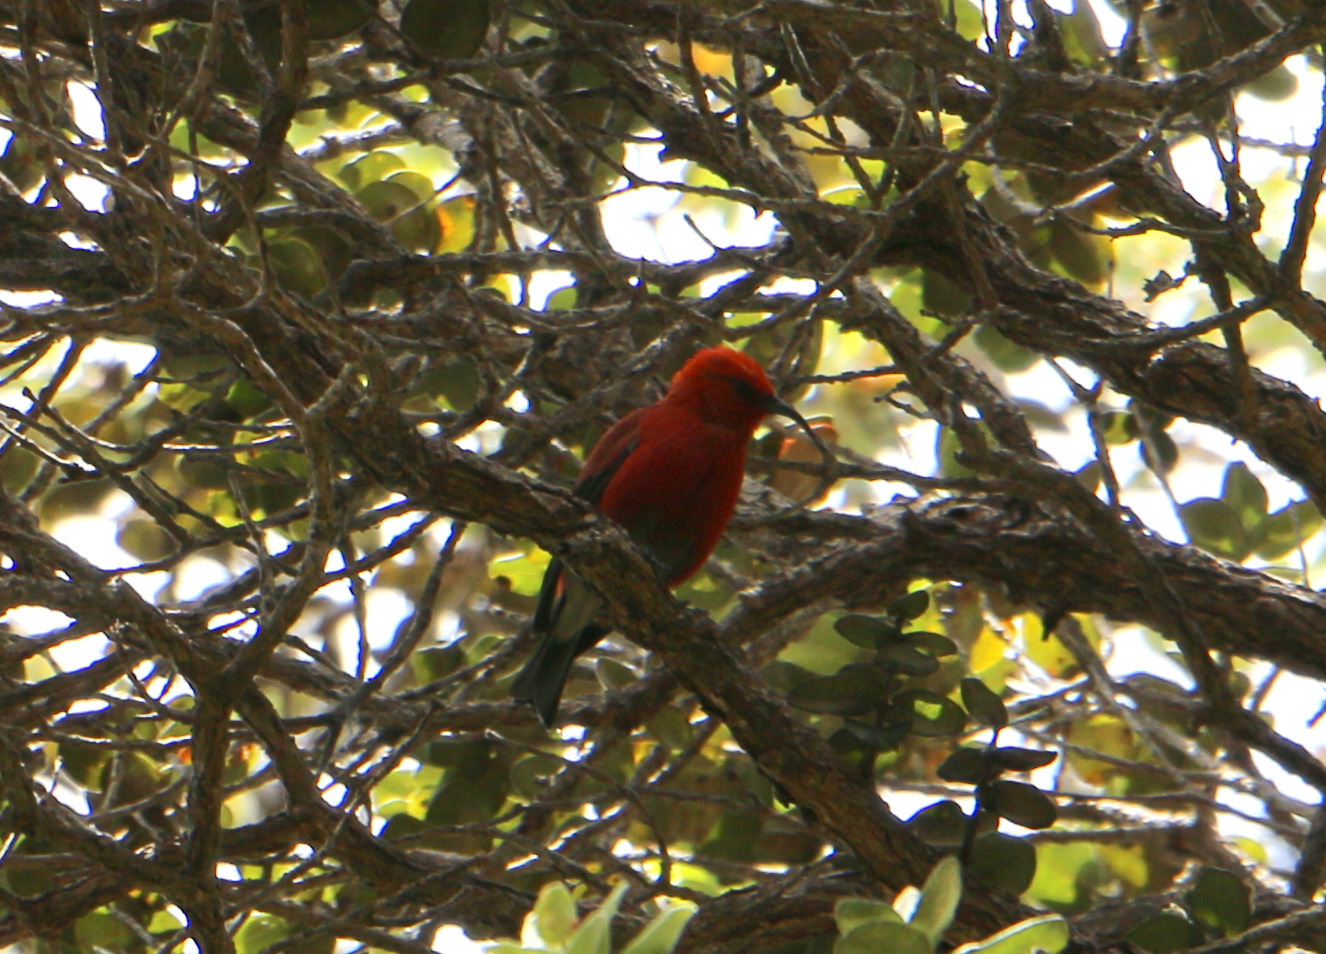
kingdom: Animalia
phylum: Chordata
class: Aves
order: Passeriformes
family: Fringillidae
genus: Himatione
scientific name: Himatione sanguinea
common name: Apapane
